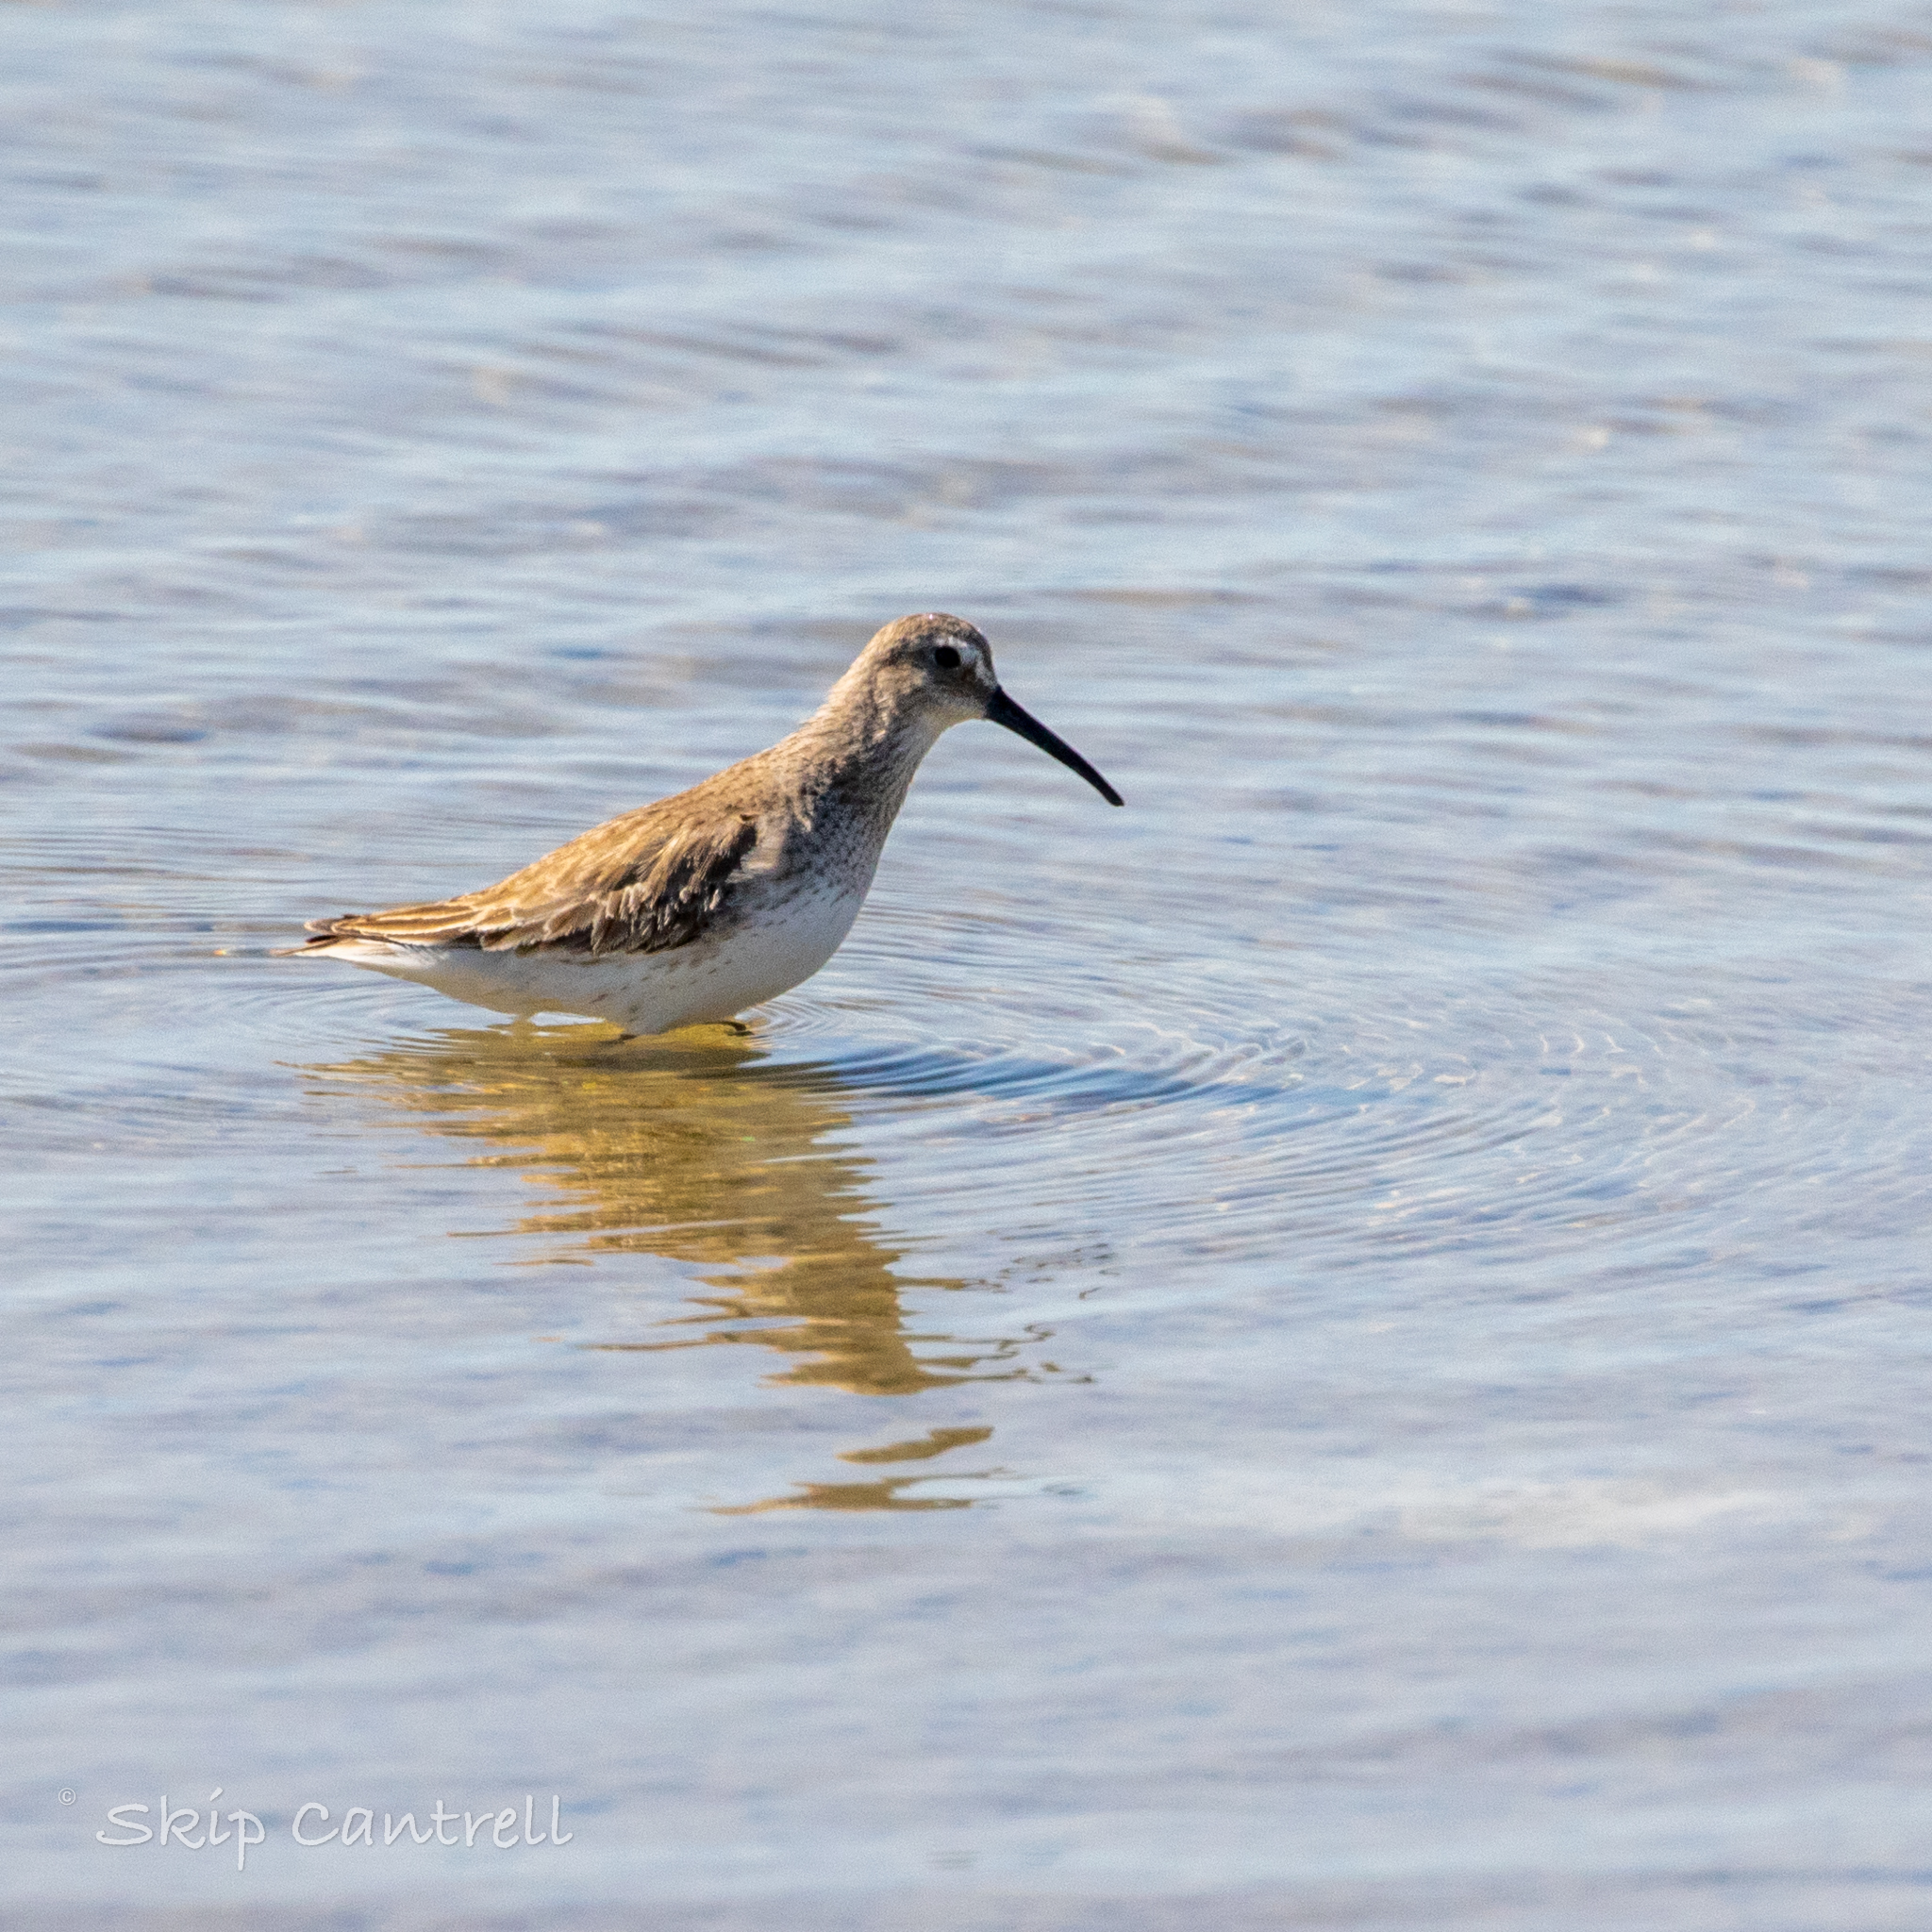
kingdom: Animalia
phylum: Chordata
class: Aves
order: Charadriiformes
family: Scolopacidae
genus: Calidris
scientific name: Calidris himantopus
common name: Stilt sandpiper
